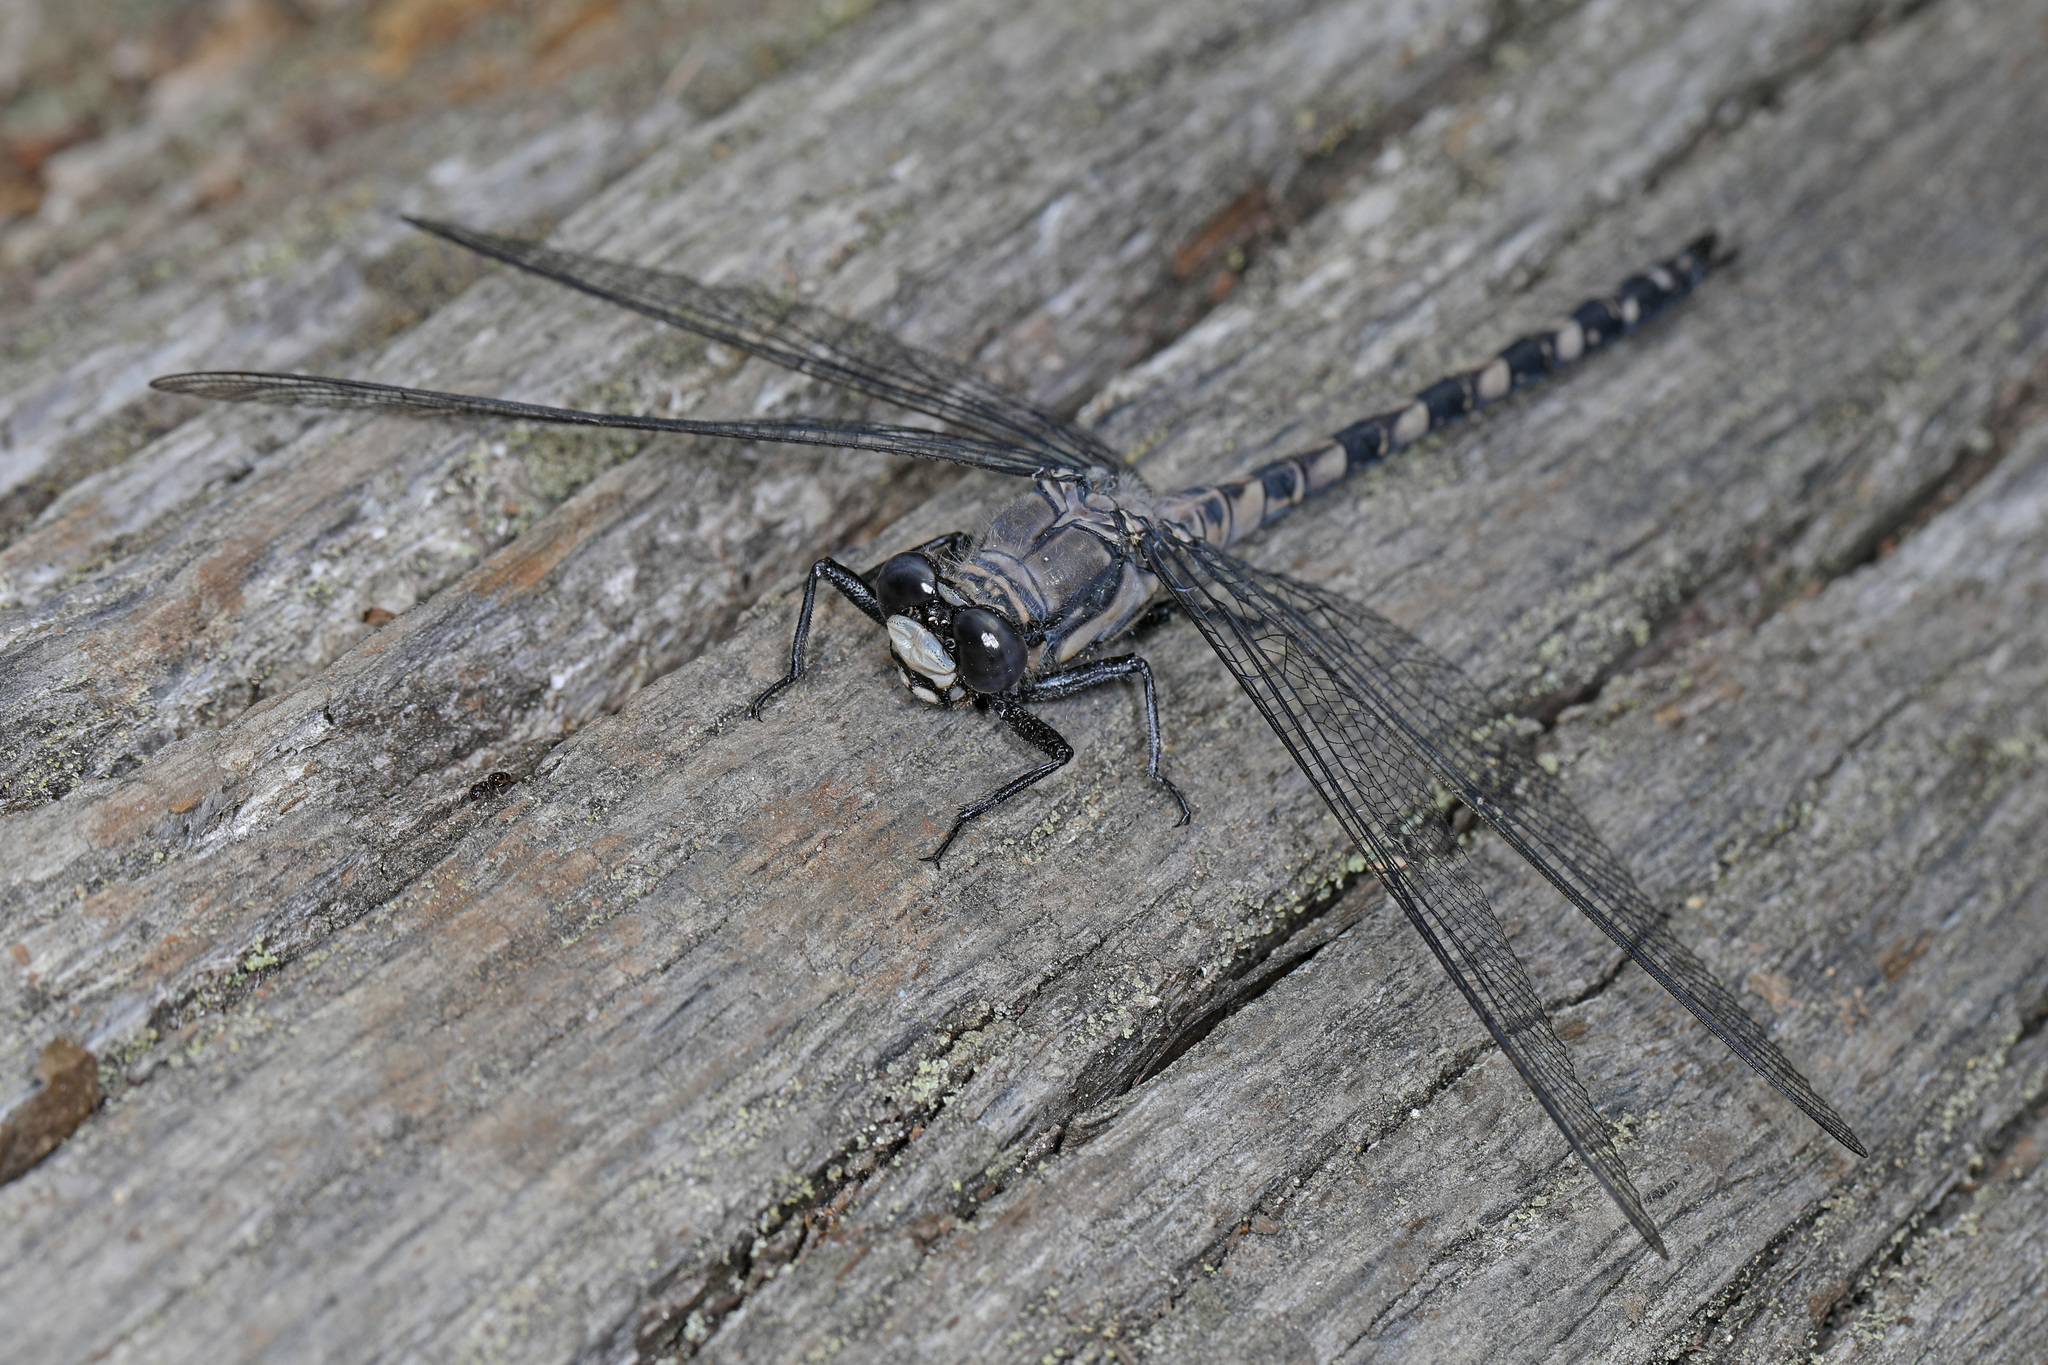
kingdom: Animalia
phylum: Arthropoda
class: Insecta
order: Odonata
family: Petaluridae
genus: Tachopteryx
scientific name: Tachopteryx thoreyi
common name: Gray petaltail
